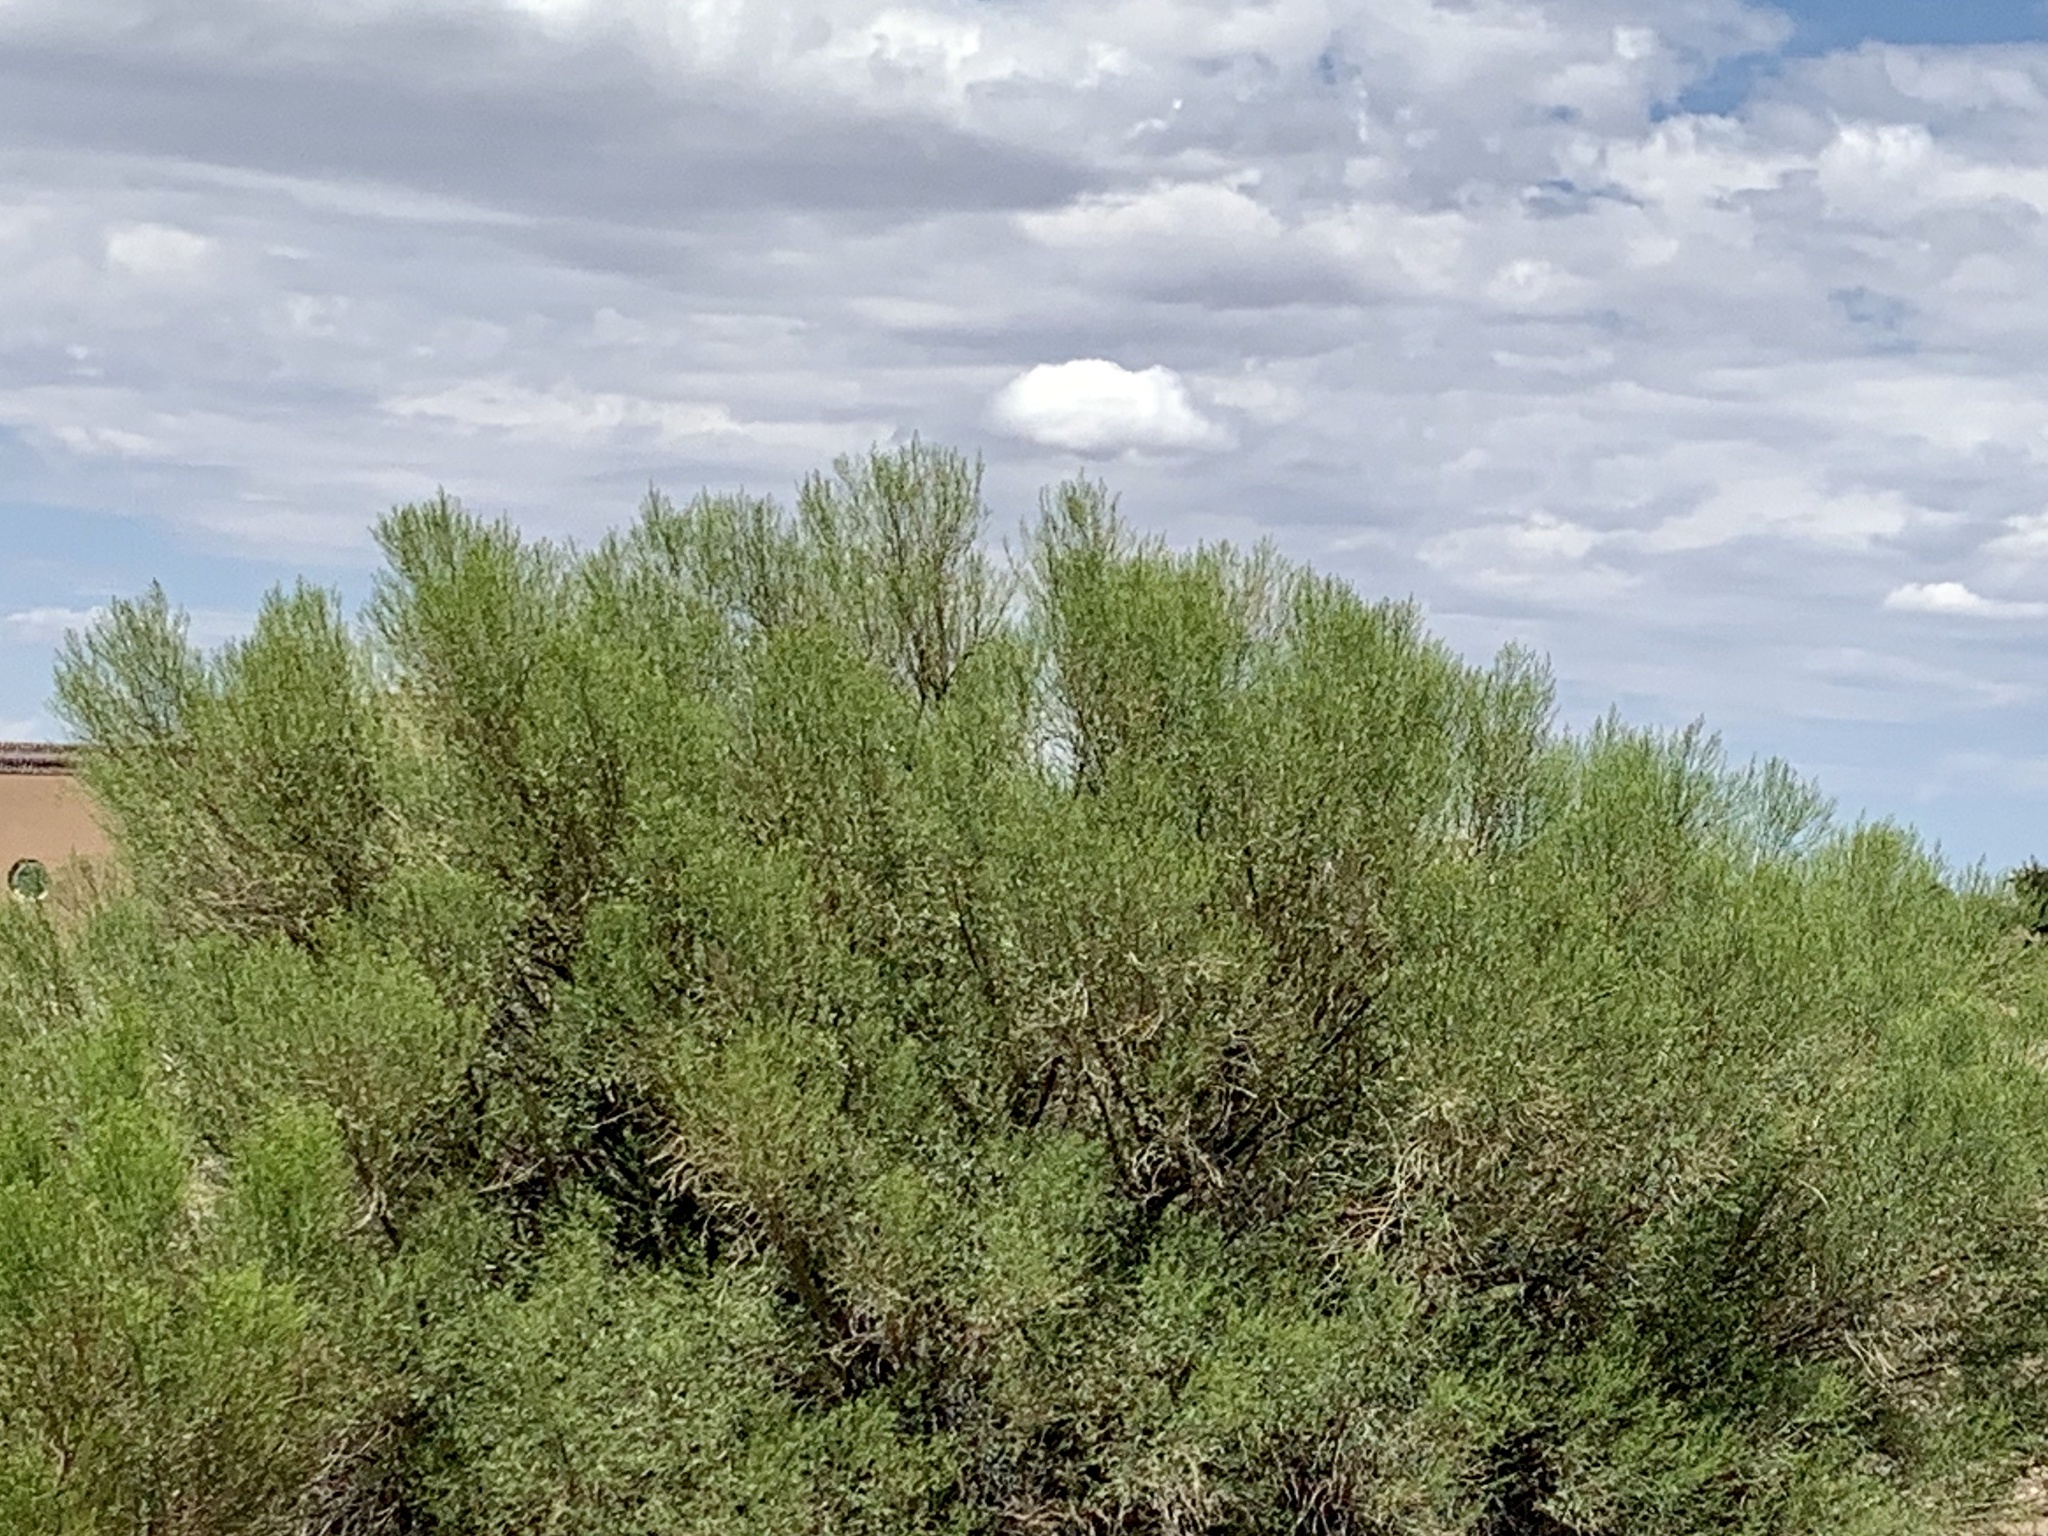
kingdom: Plantae
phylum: Tracheophyta
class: Magnoliopsida
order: Asterales
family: Asteraceae
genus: Baccharis
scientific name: Baccharis sarothroides
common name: Desert-broom
